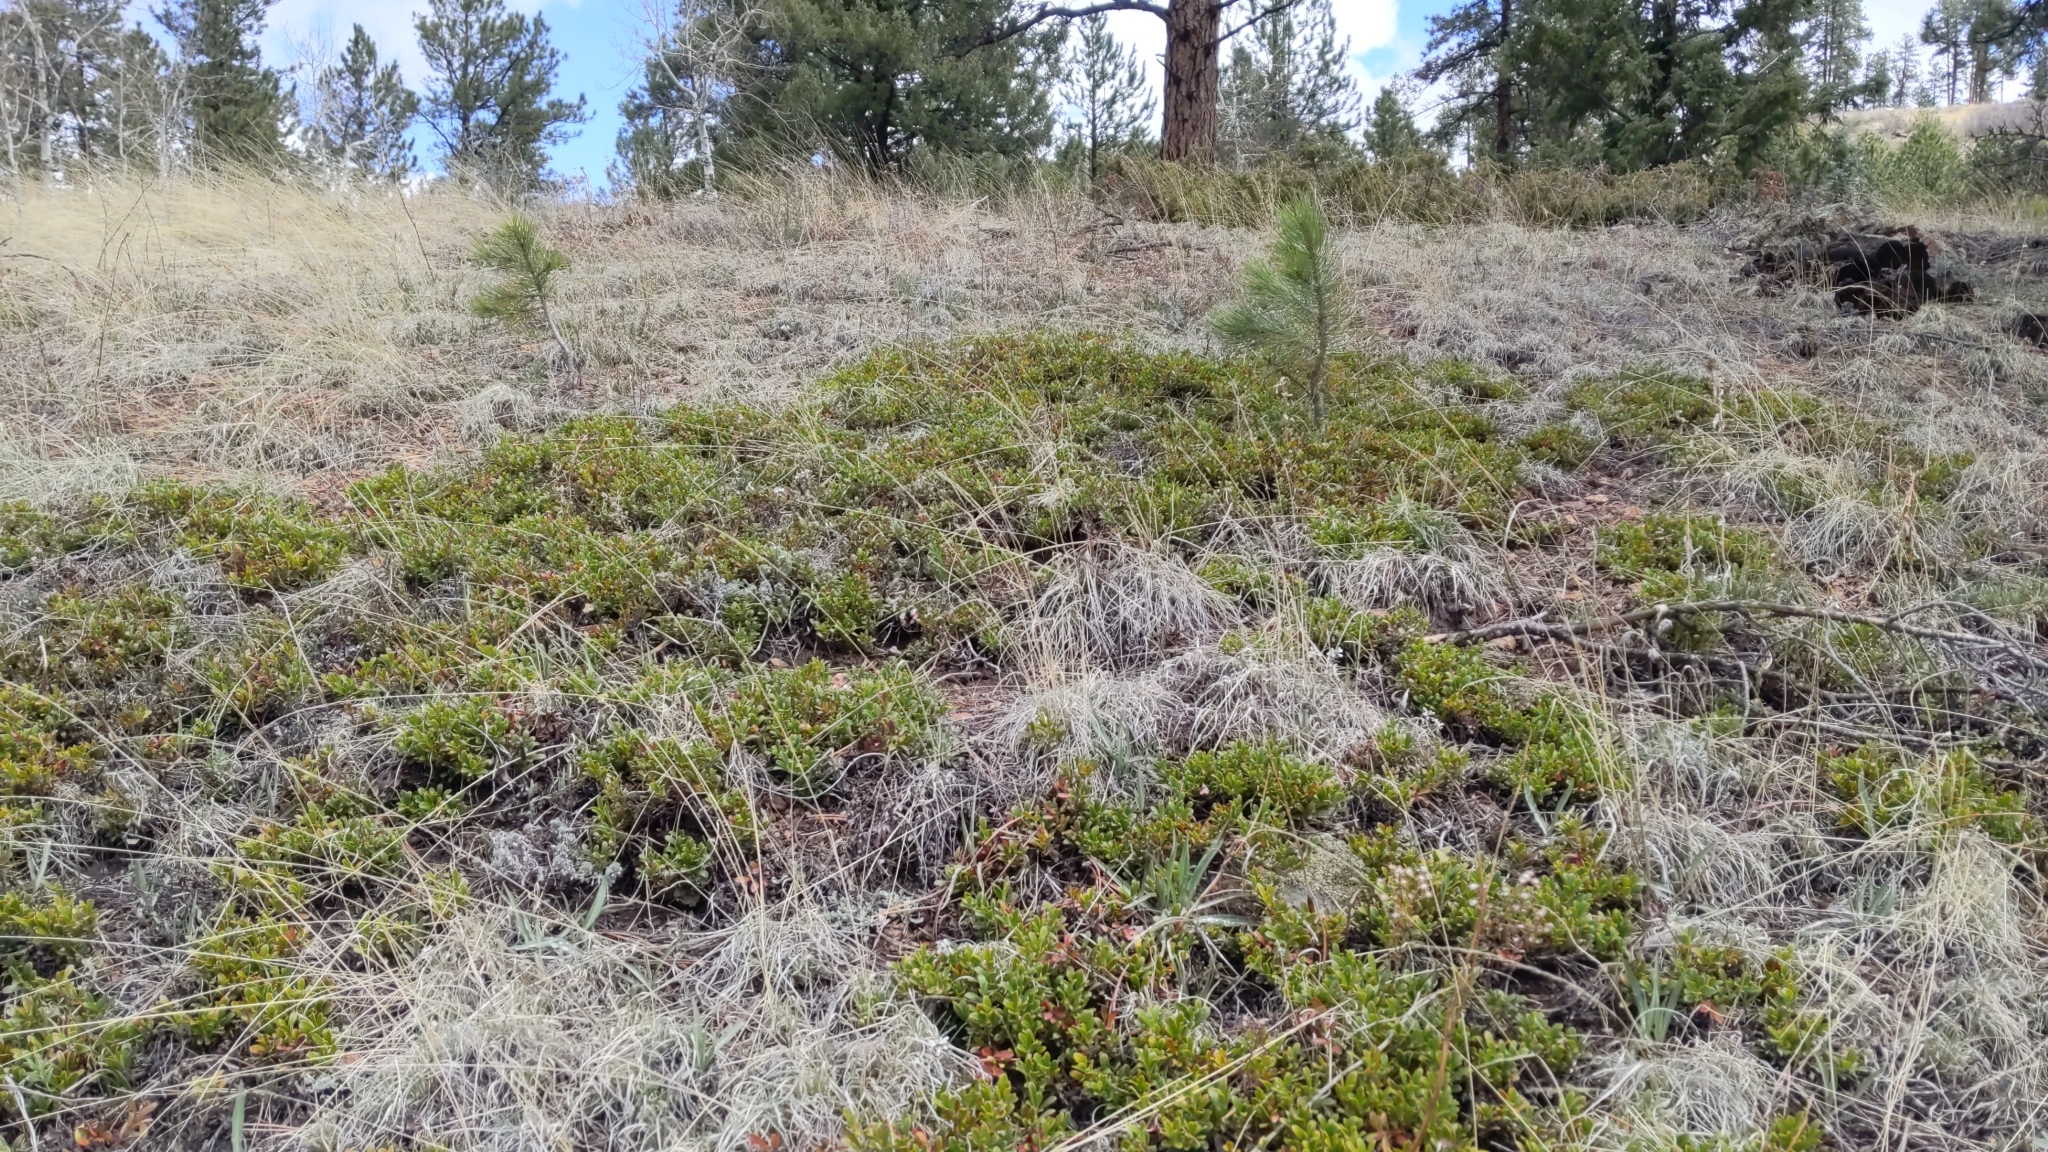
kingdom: Plantae
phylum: Tracheophyta
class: Magnoliopsida
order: Ericales
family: Ericaceae
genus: Arctostaphylos
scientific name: Arctostaphylos uva-ursi
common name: Bearberry
